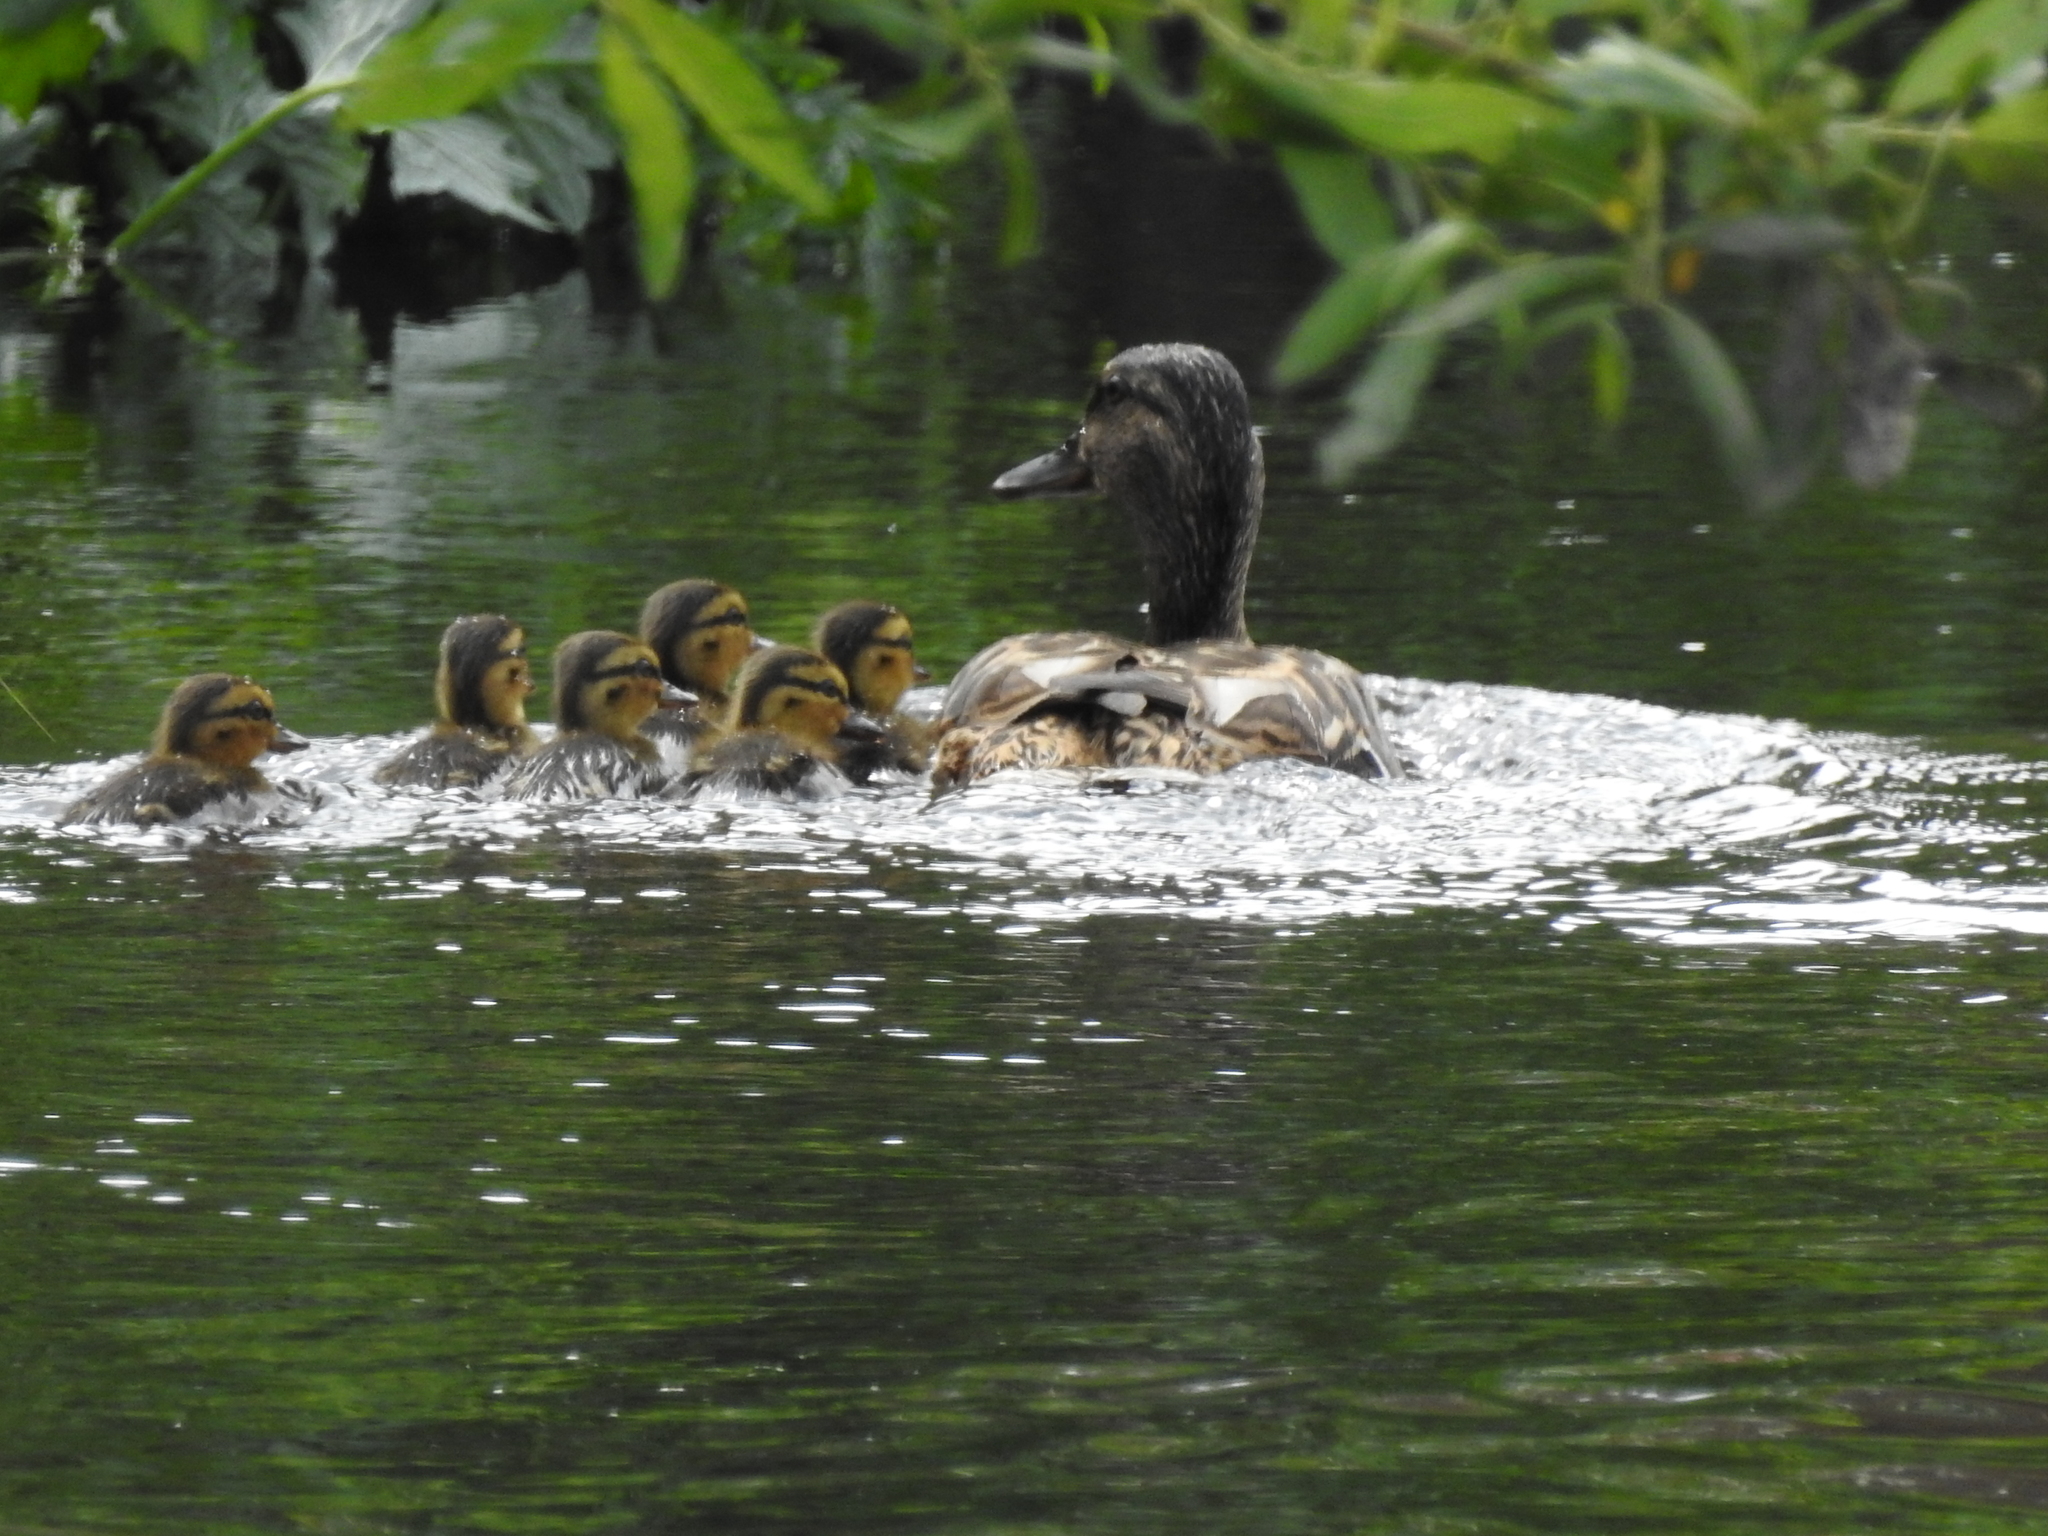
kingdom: Animalia
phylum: Chordata
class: Aves
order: Anseriformes
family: Anatidae
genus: Anas
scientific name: Anas platyrhynchos
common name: Mallard
